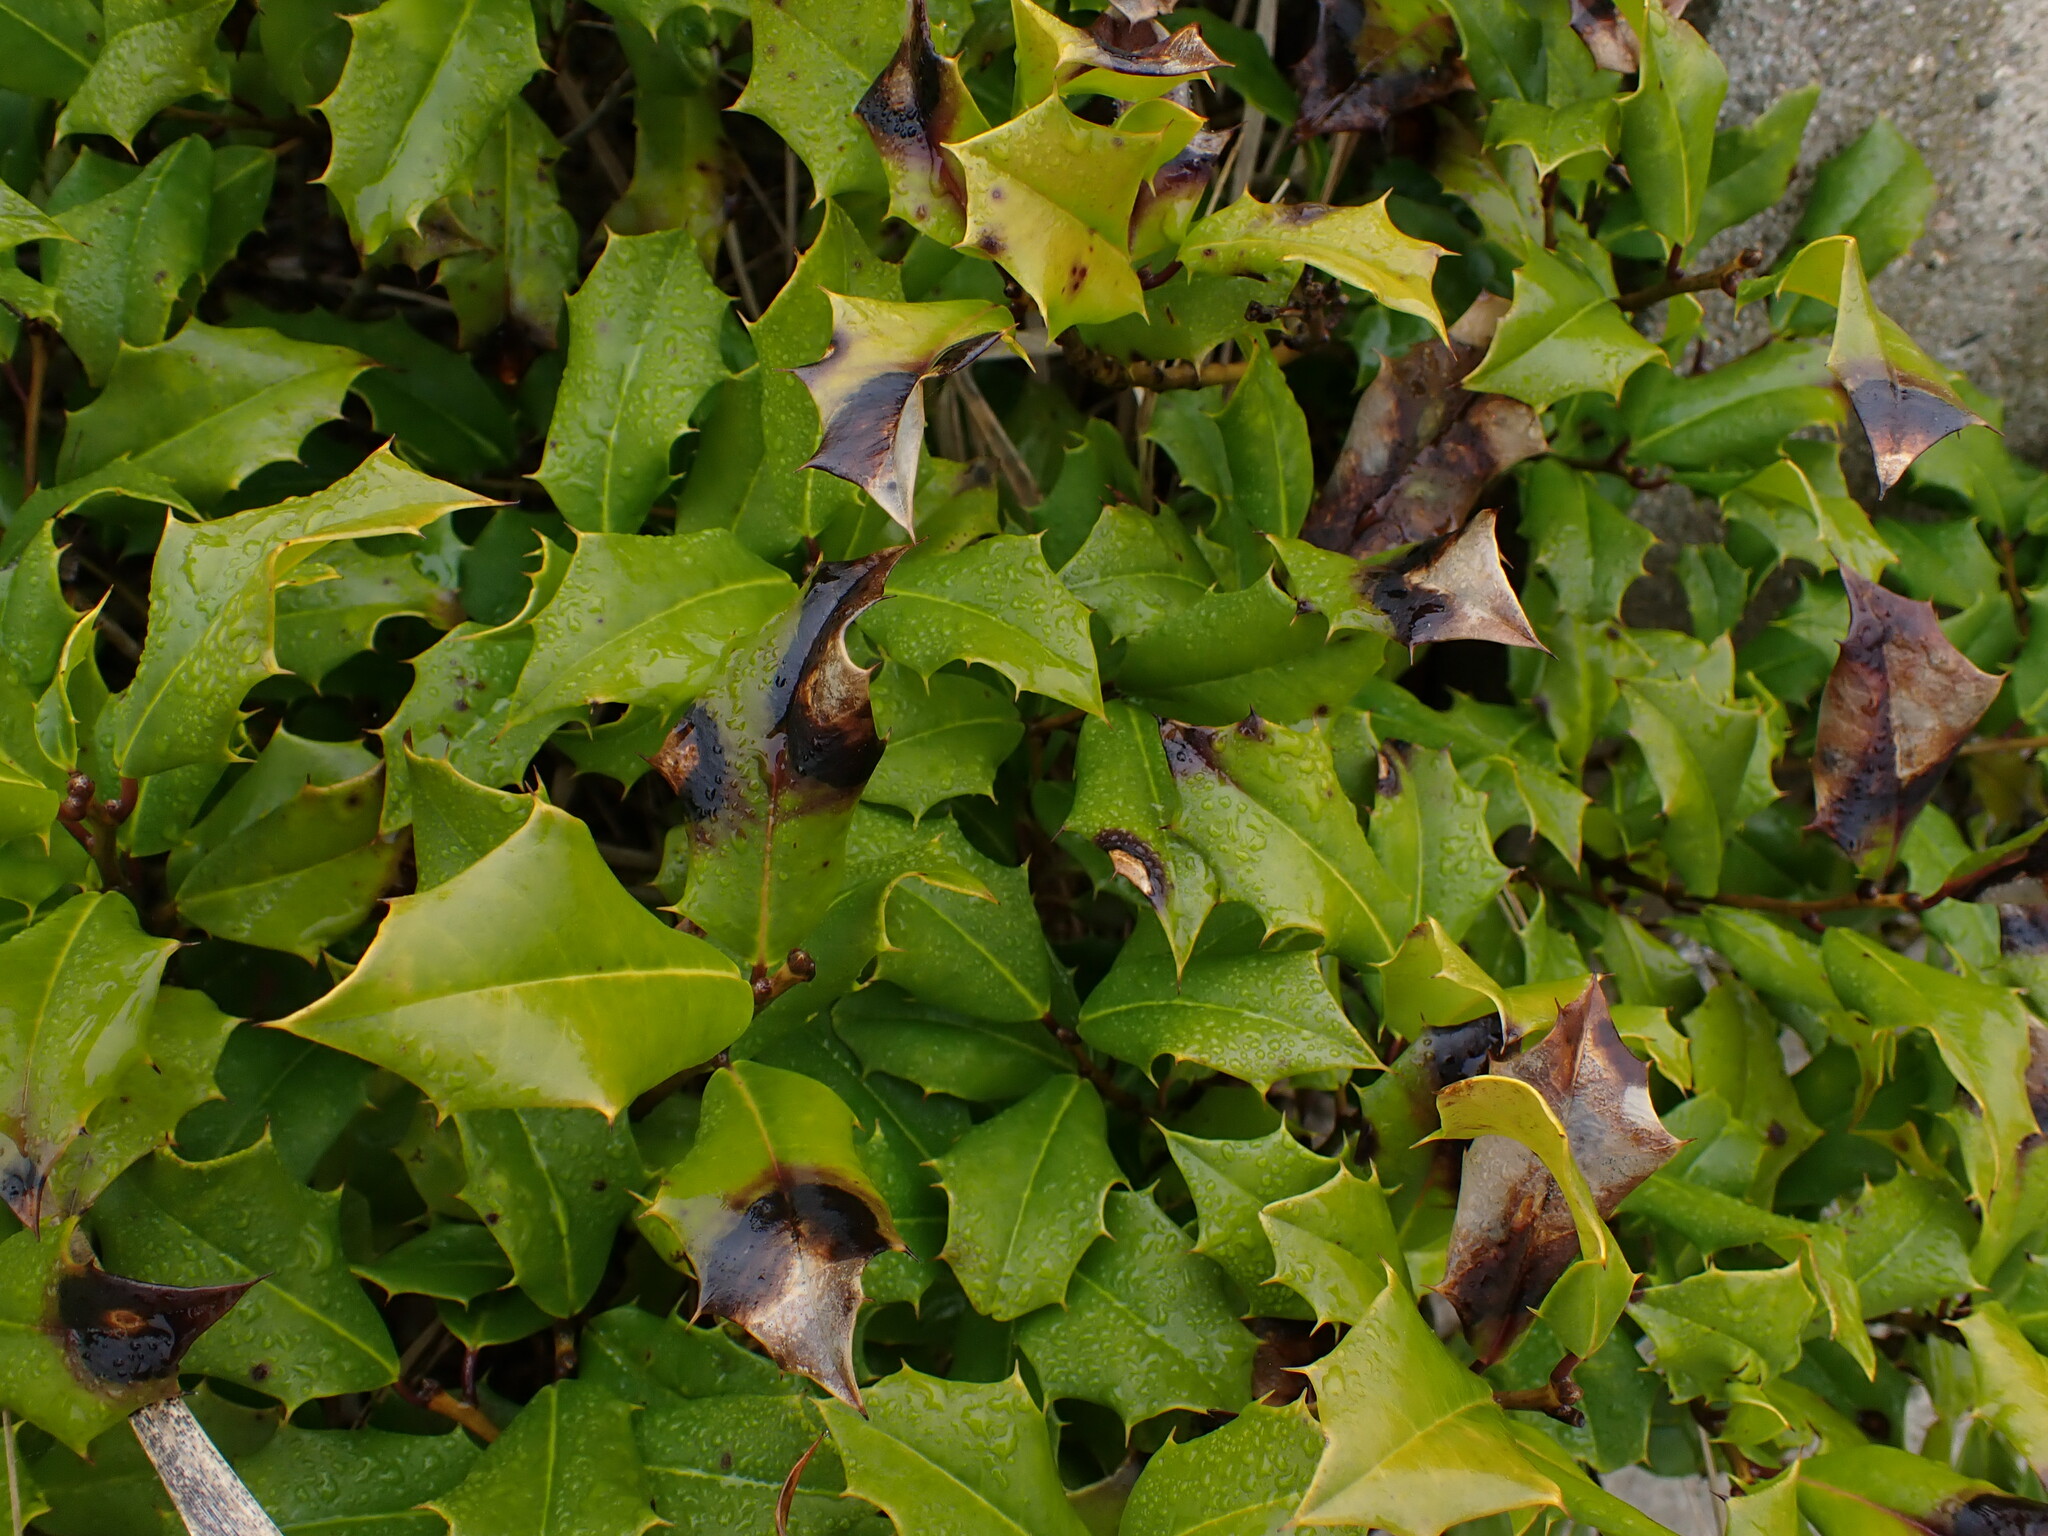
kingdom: Plantae
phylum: Tracheophyta
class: Magnoliopsida
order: Aquifoliales
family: Aquifoliaceae
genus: Ilex
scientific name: Ilex opaca
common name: American holly
